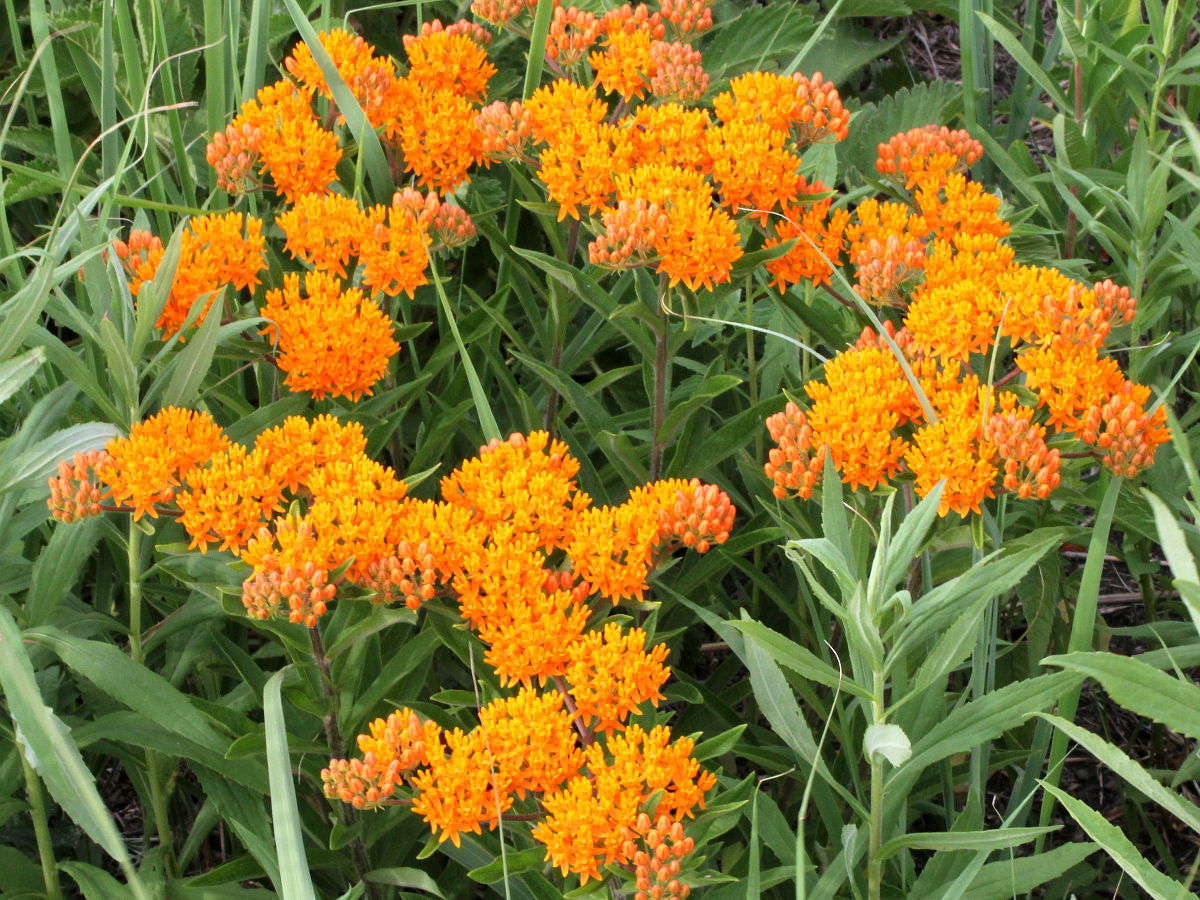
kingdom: Plantae
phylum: Tracheophyta
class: Magnoliopsida
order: Gentianales
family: Apocynaceae
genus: Asclepias
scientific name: Asclepias tuberosa
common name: Butterfly milkweed
